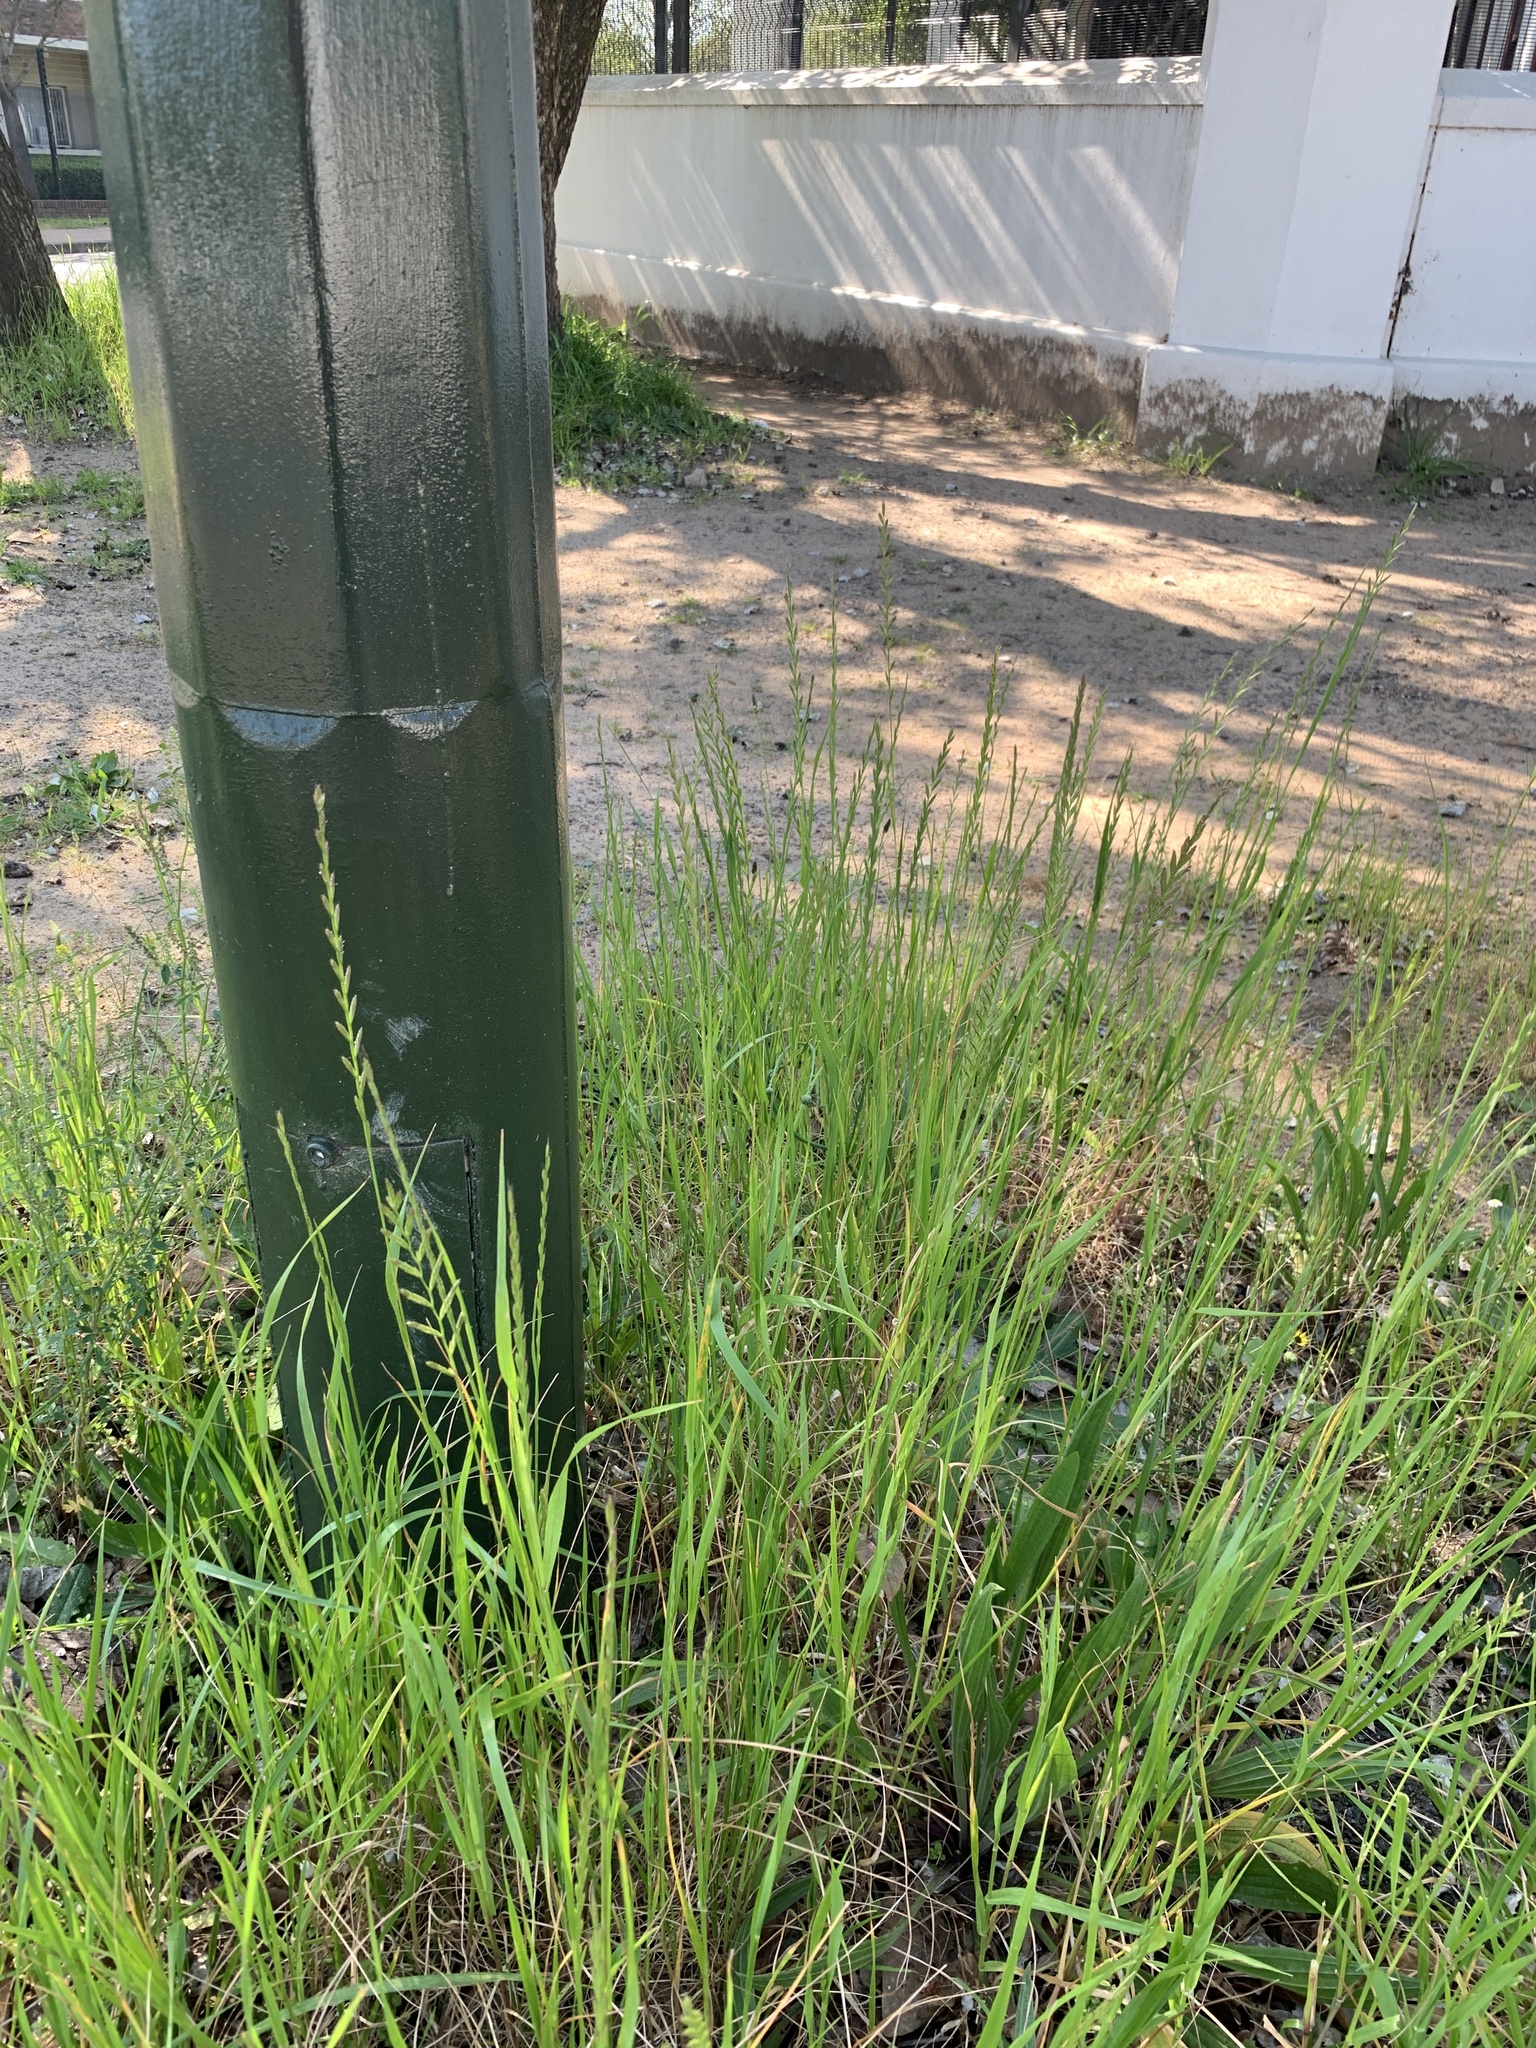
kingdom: Plantae
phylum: Tracheophyta
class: Liliopsida
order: Poales
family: Poaceae
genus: Lolium
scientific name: Lolium multiflorum
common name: Annual ryegrass
